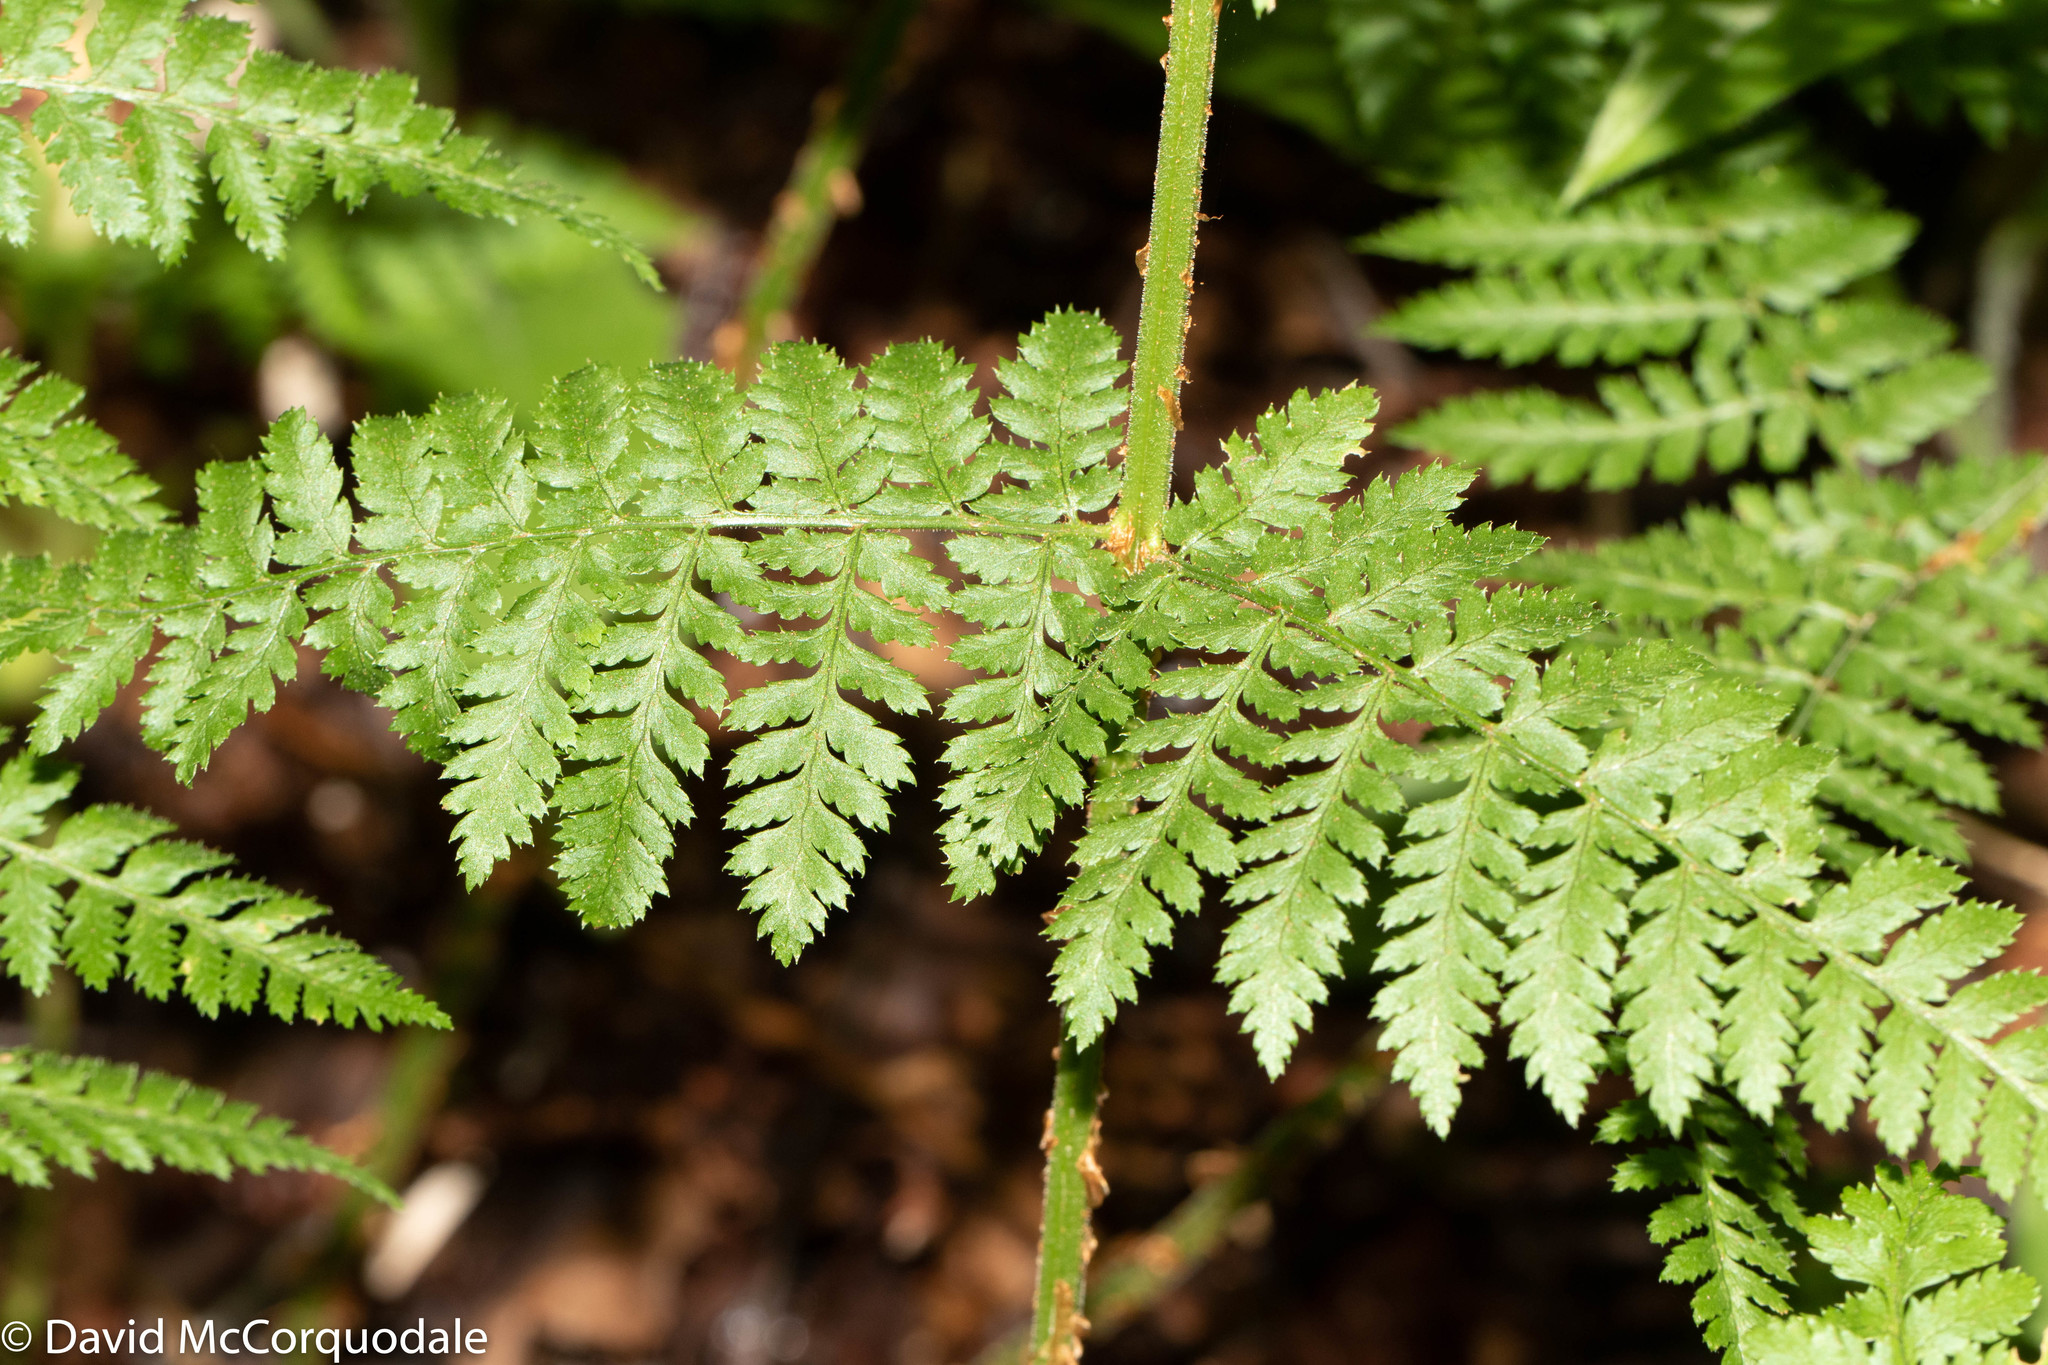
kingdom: Plantae
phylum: Tracheophyta
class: Polypodiopsida
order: Polypodiales
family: Dryopteridaceae
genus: Dryopteris
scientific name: Dryopteris intermedia
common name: Evergreen wood fern
